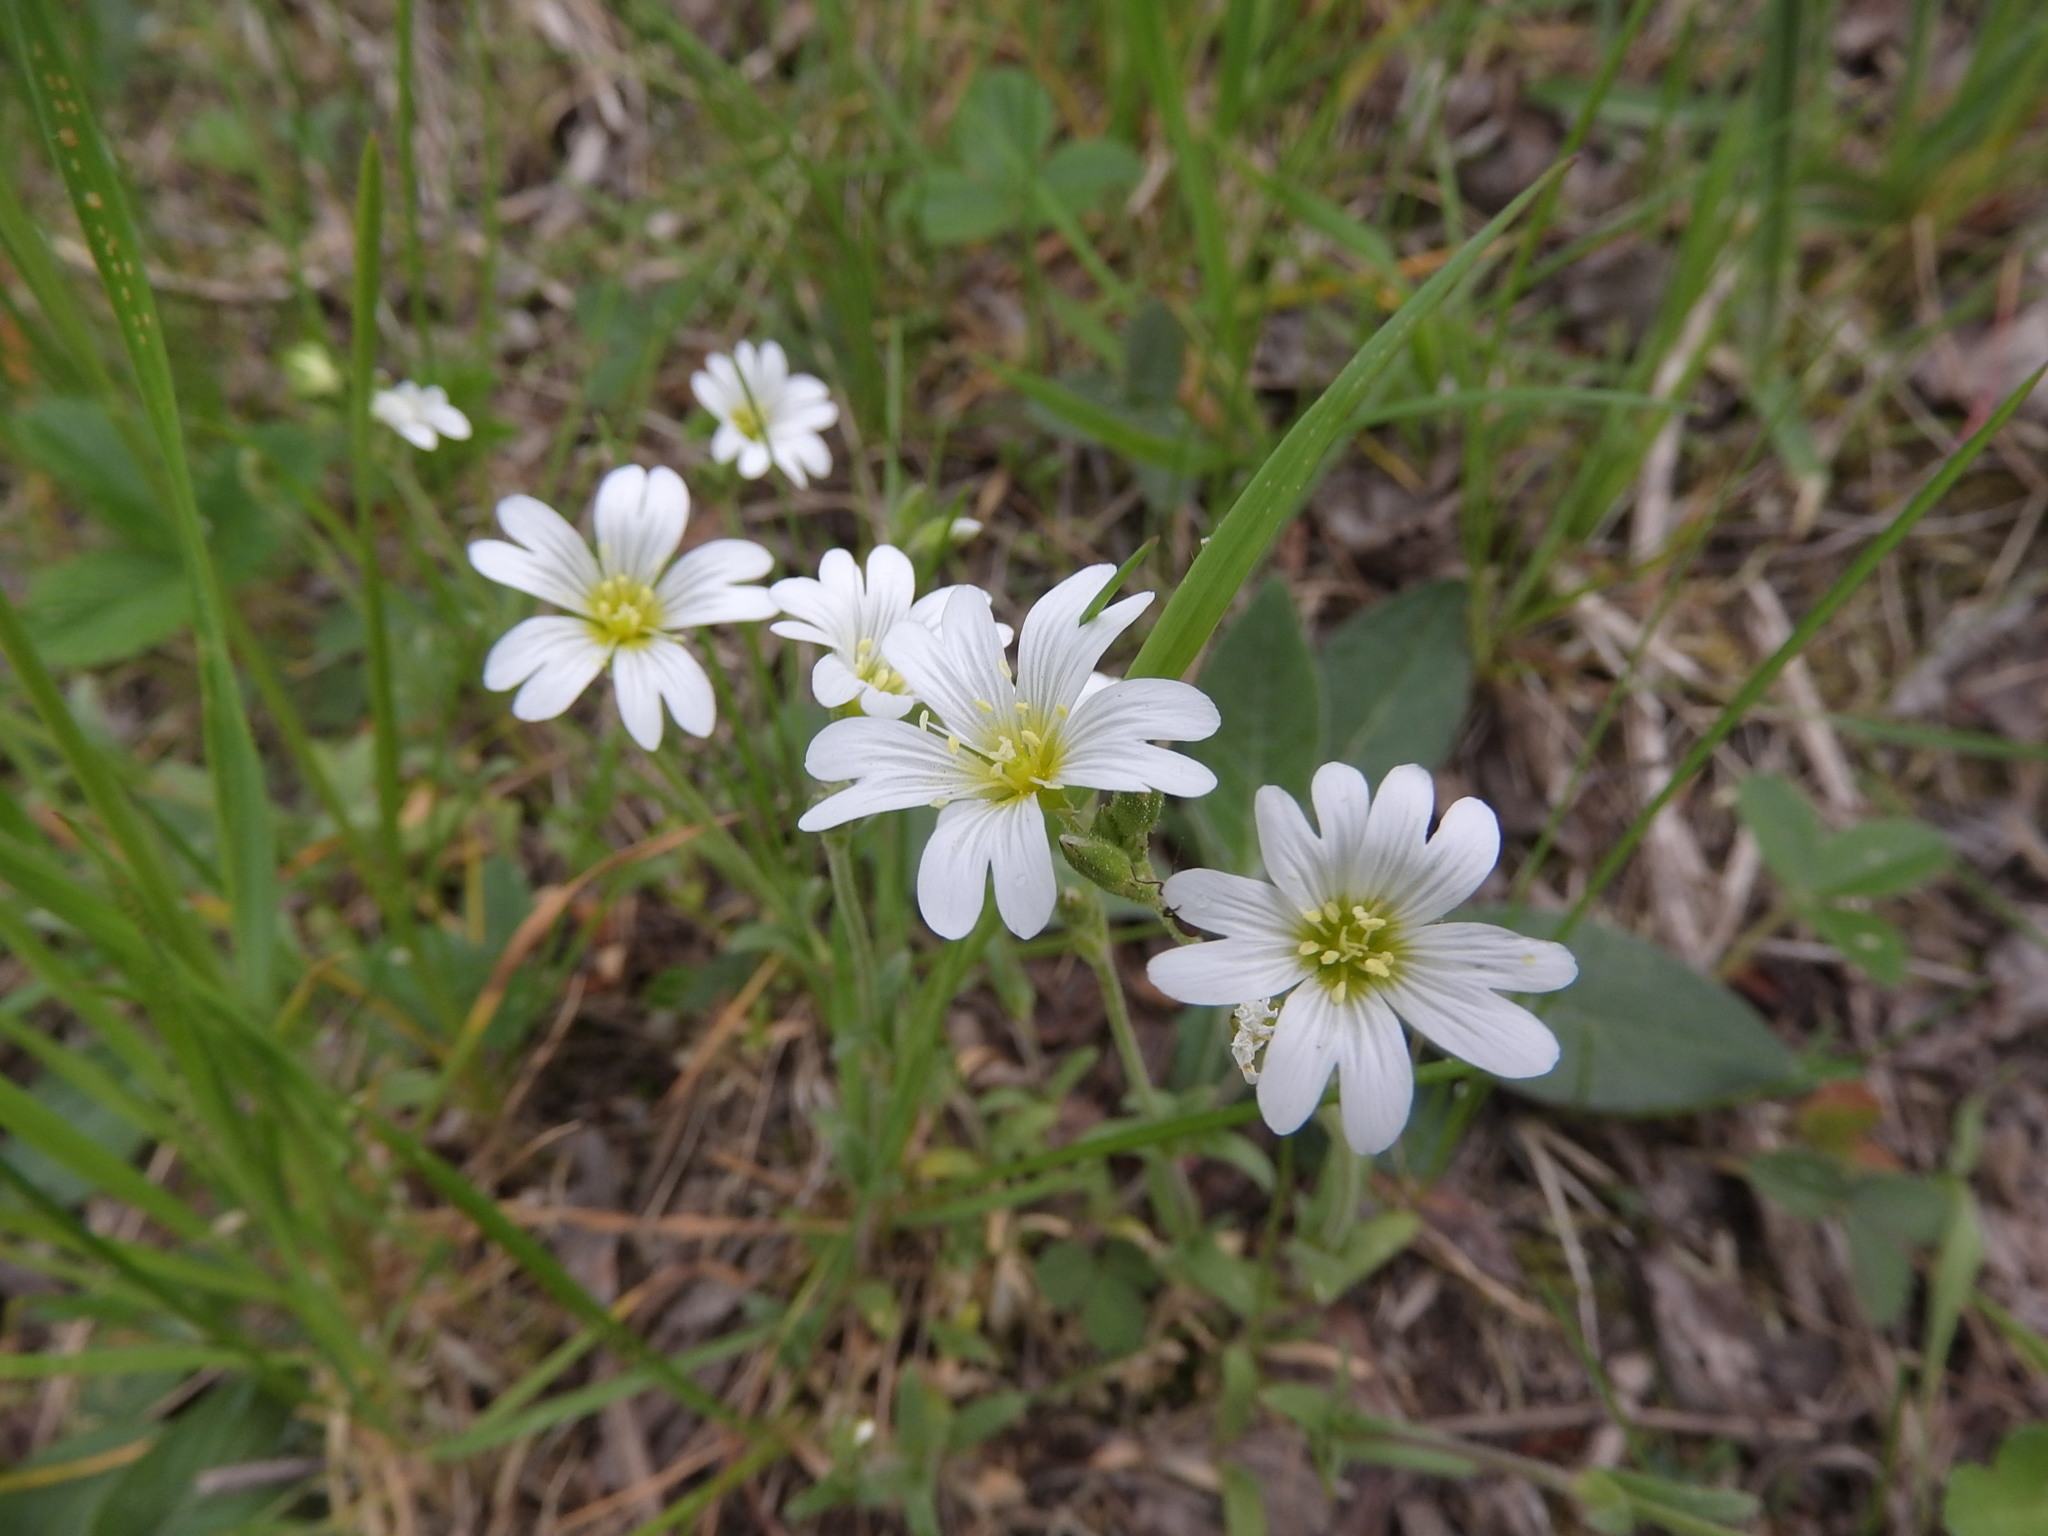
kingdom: Plantae
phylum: Tracheophyta
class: Magnoliopsida
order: Caryophyllales
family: Caryophyllaceae
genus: Cerastium
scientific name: Cerastium arvense
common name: Field mouse-ear
